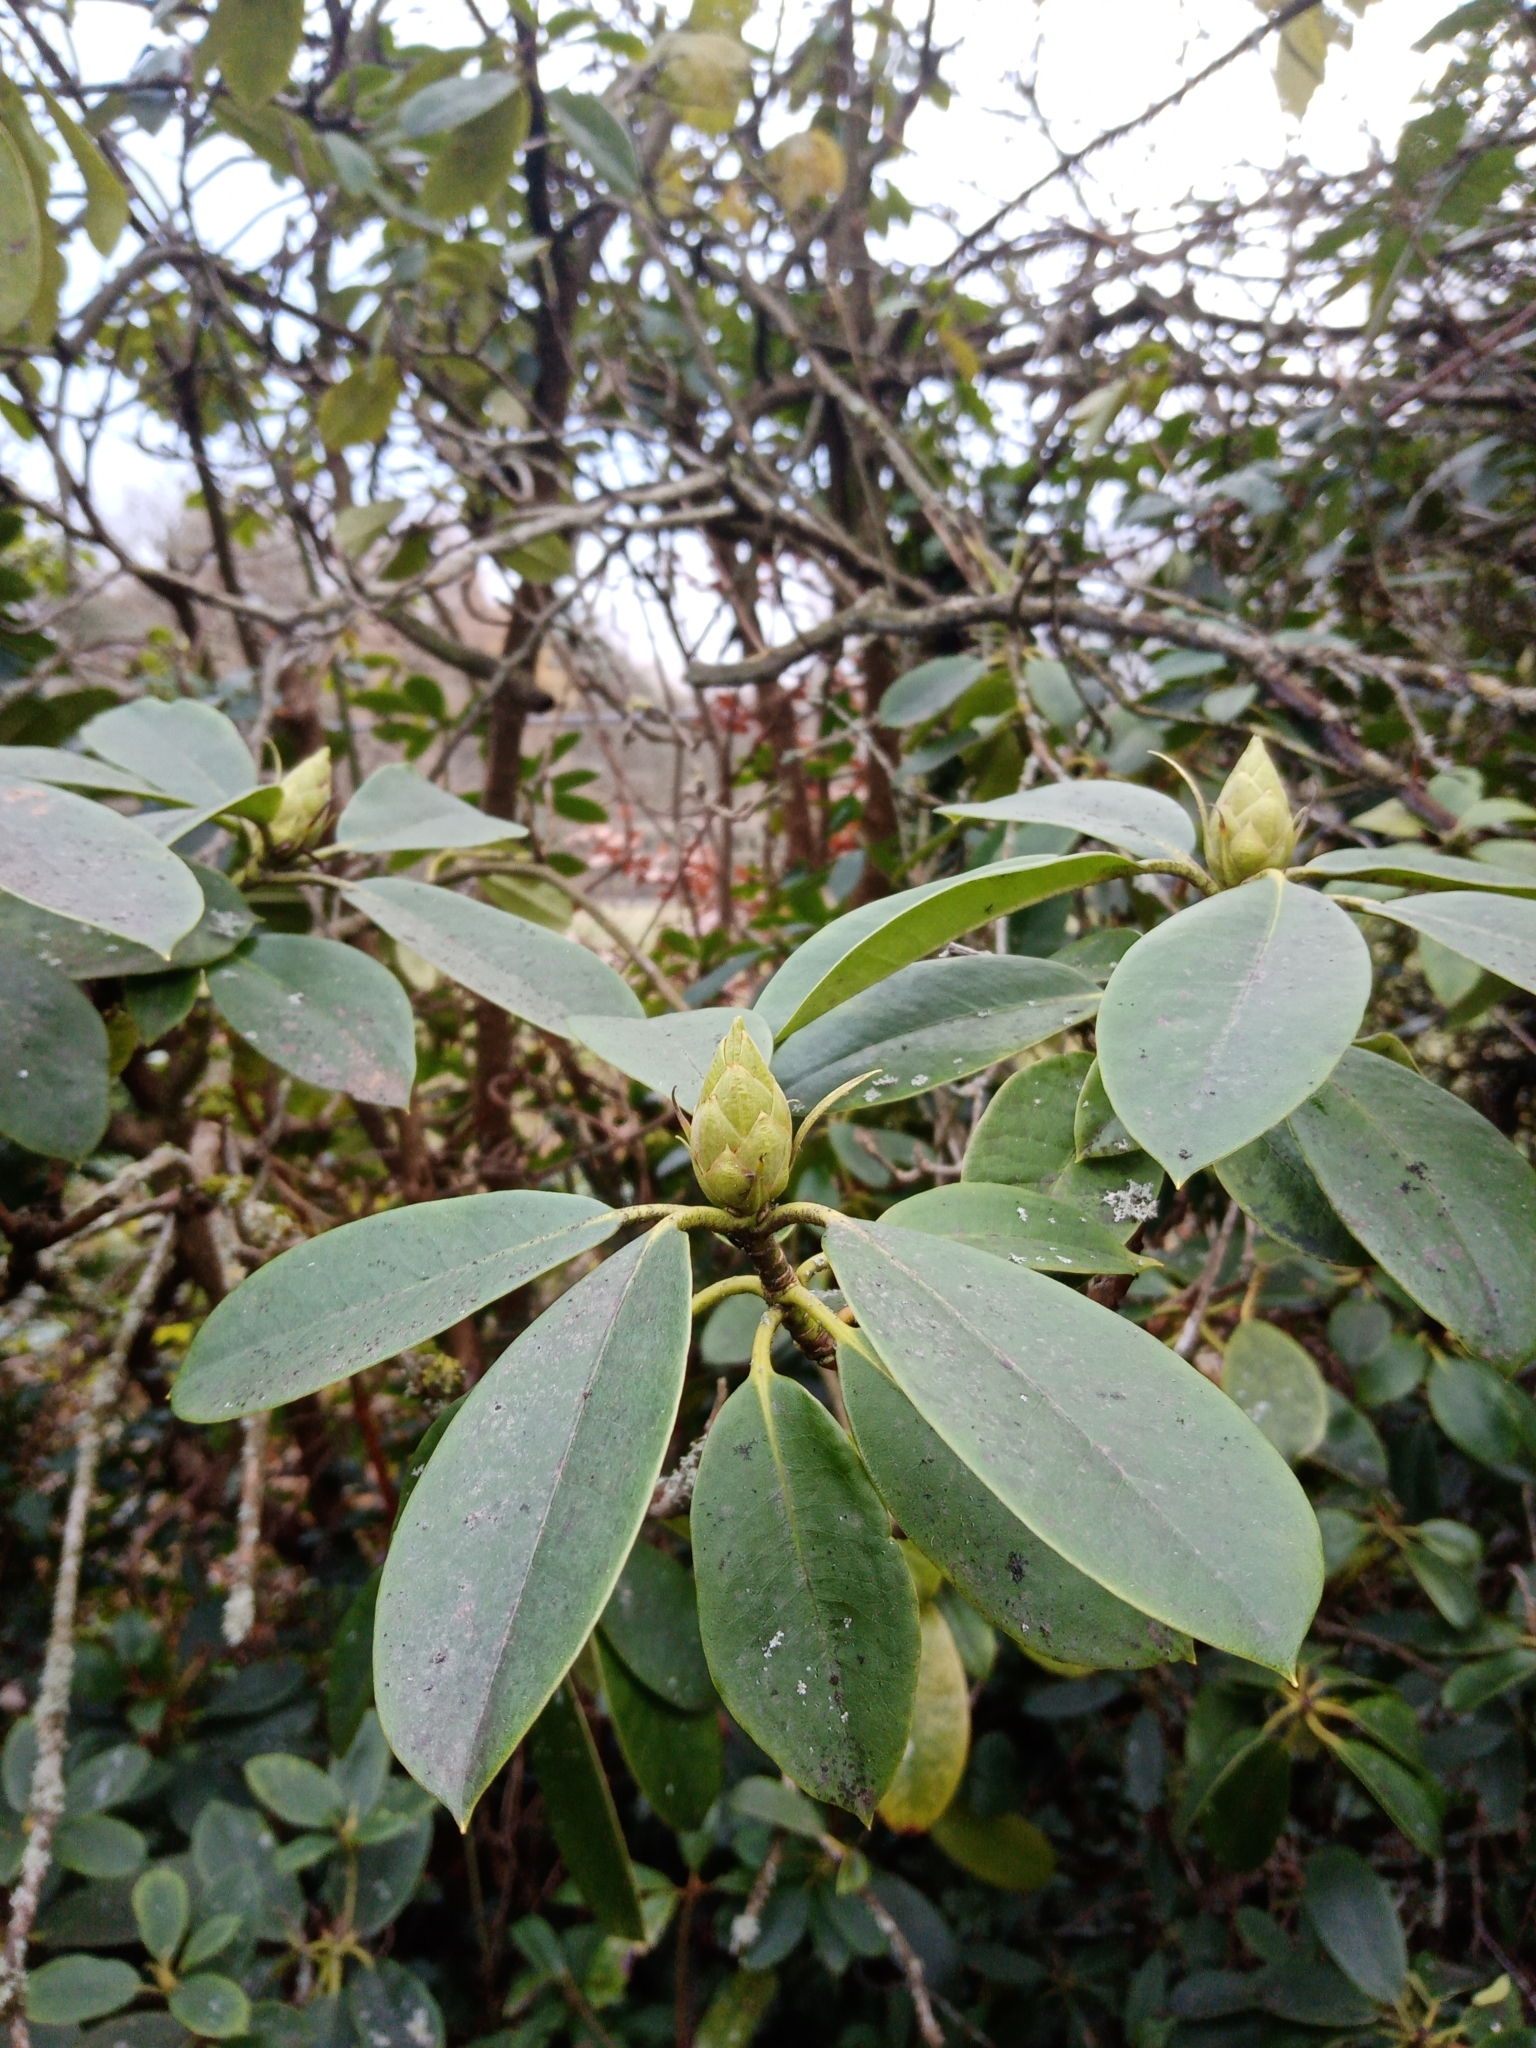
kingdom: Plantae
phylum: Tracheophyta
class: Magnoliopsida
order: Ericales
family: Ericaceae
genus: Rhododendron
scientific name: Rhododendron ponticum
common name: Rhododendron
